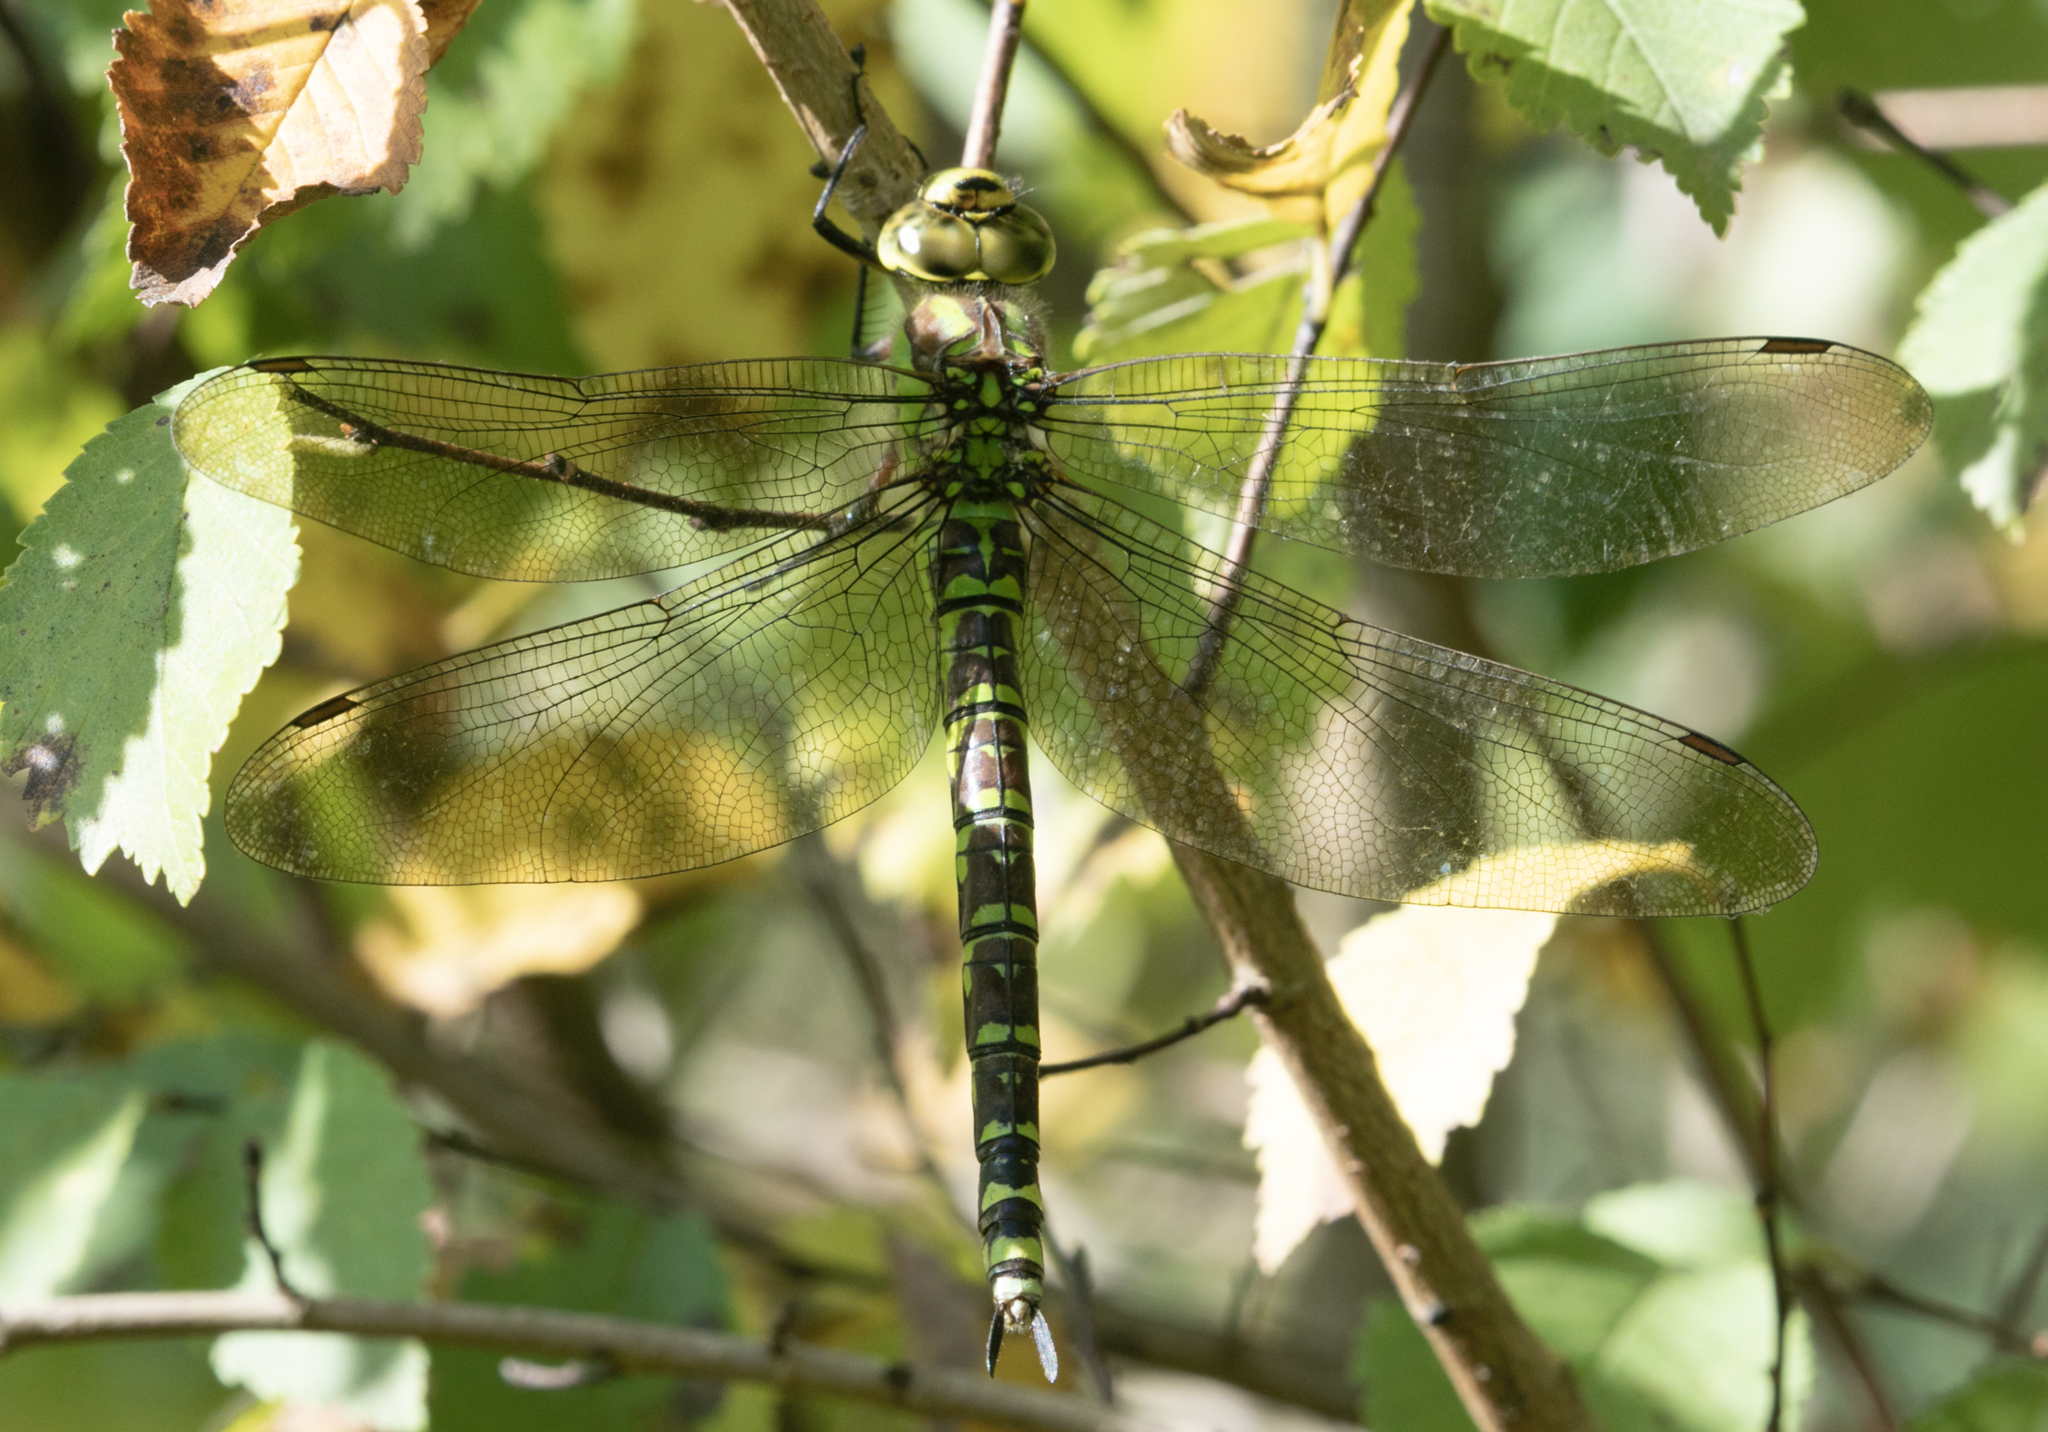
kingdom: Animalia
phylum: Arthropoda
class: Insecta
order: Odonata
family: Aeshnidae
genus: Aeshna
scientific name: Aeshna cyanea
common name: Southern hawker
